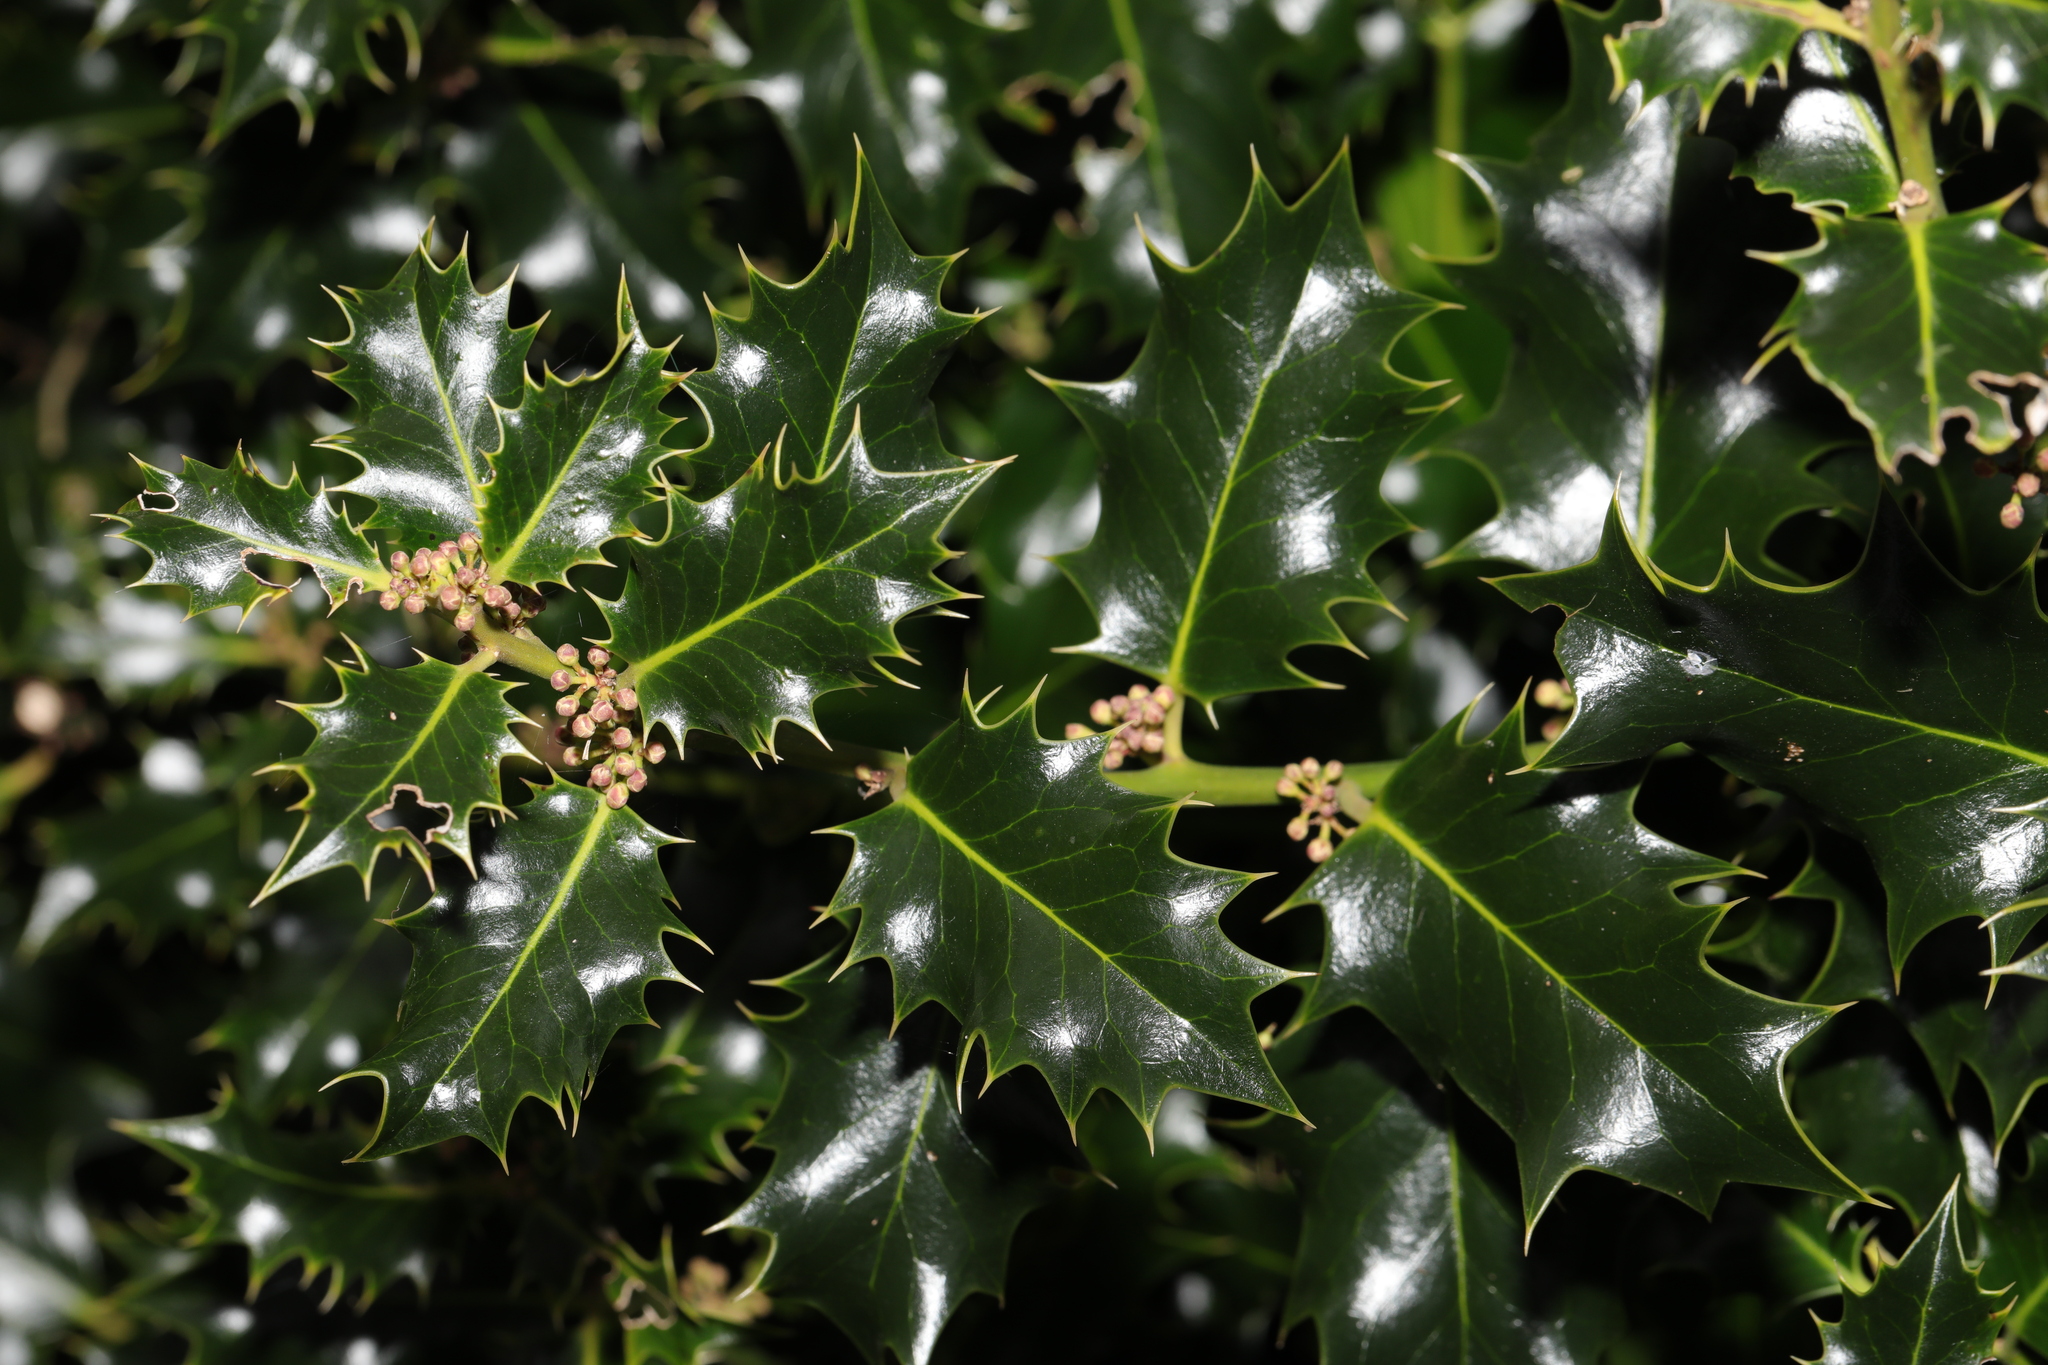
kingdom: Plantae
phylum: Tracheophyta
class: Magnoliopsida
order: Aquifoliales
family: Aquifoliaceae
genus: Ilex
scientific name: Ilex aquifolium
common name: English holly
